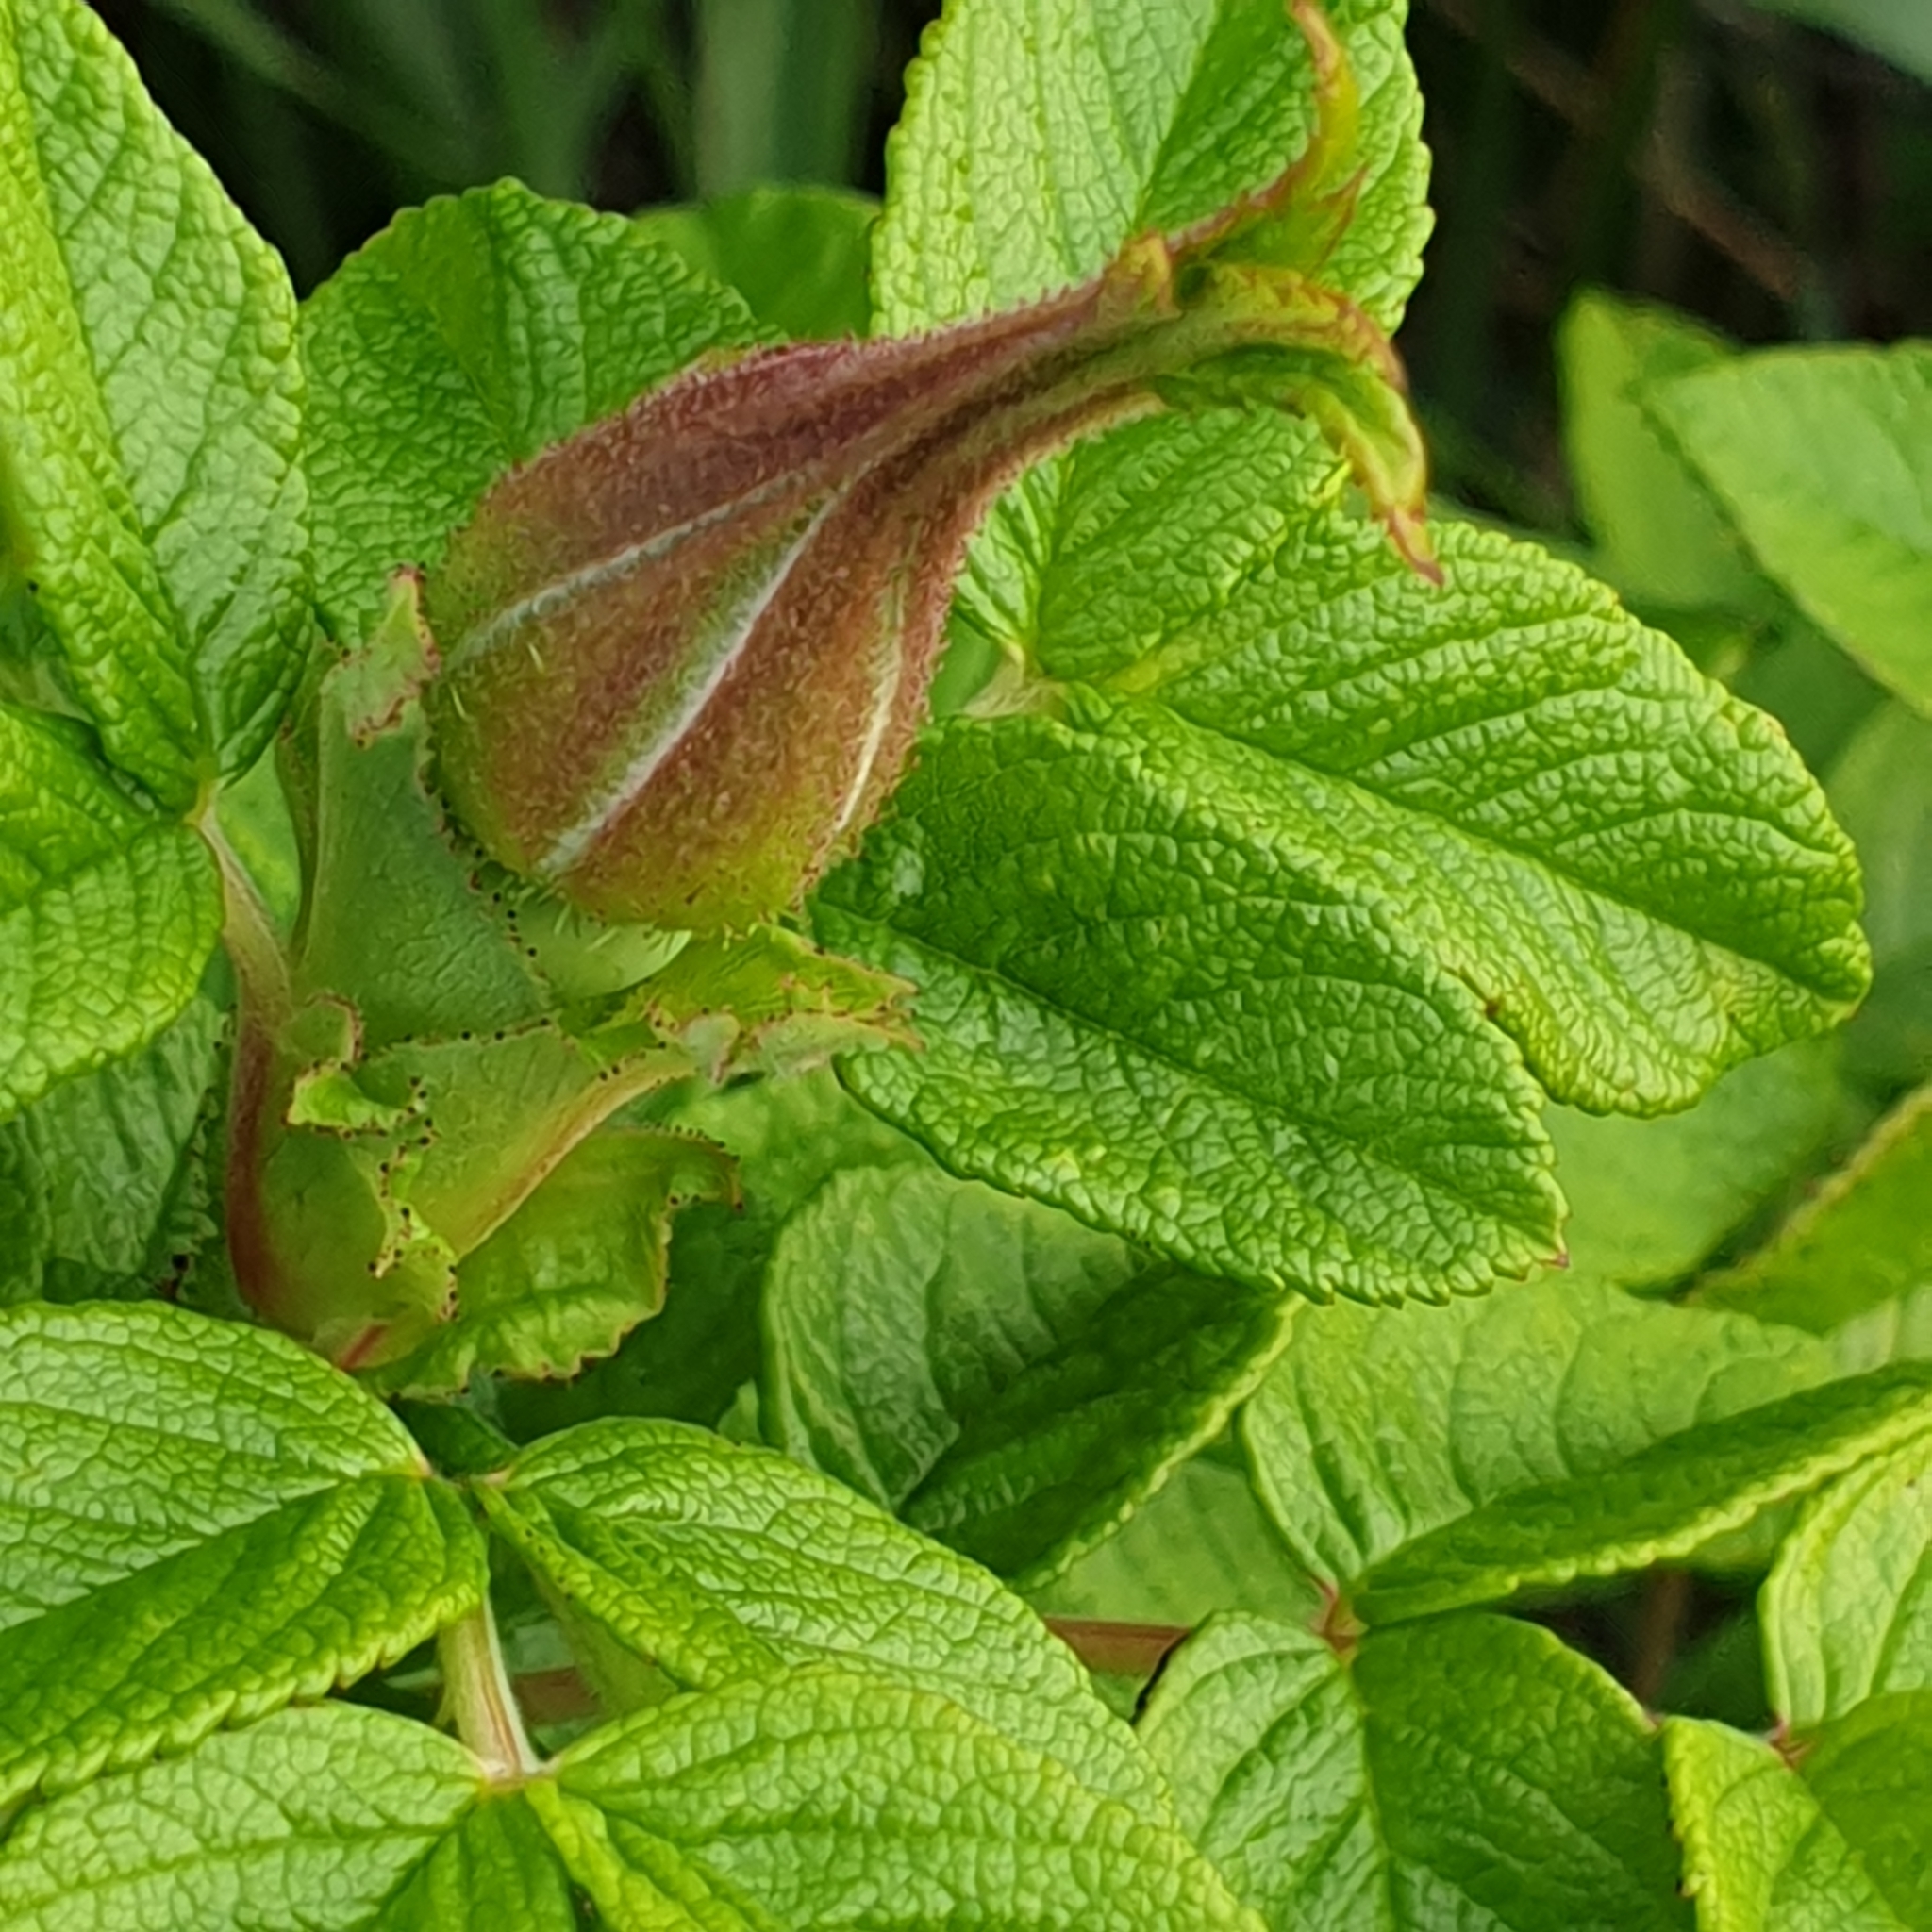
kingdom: Plantae
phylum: Tracheophyta
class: Magnoliopsida
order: Rosales
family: Rosaceae
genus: Rosa
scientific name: Rosa rugosa
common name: Japanese rose
